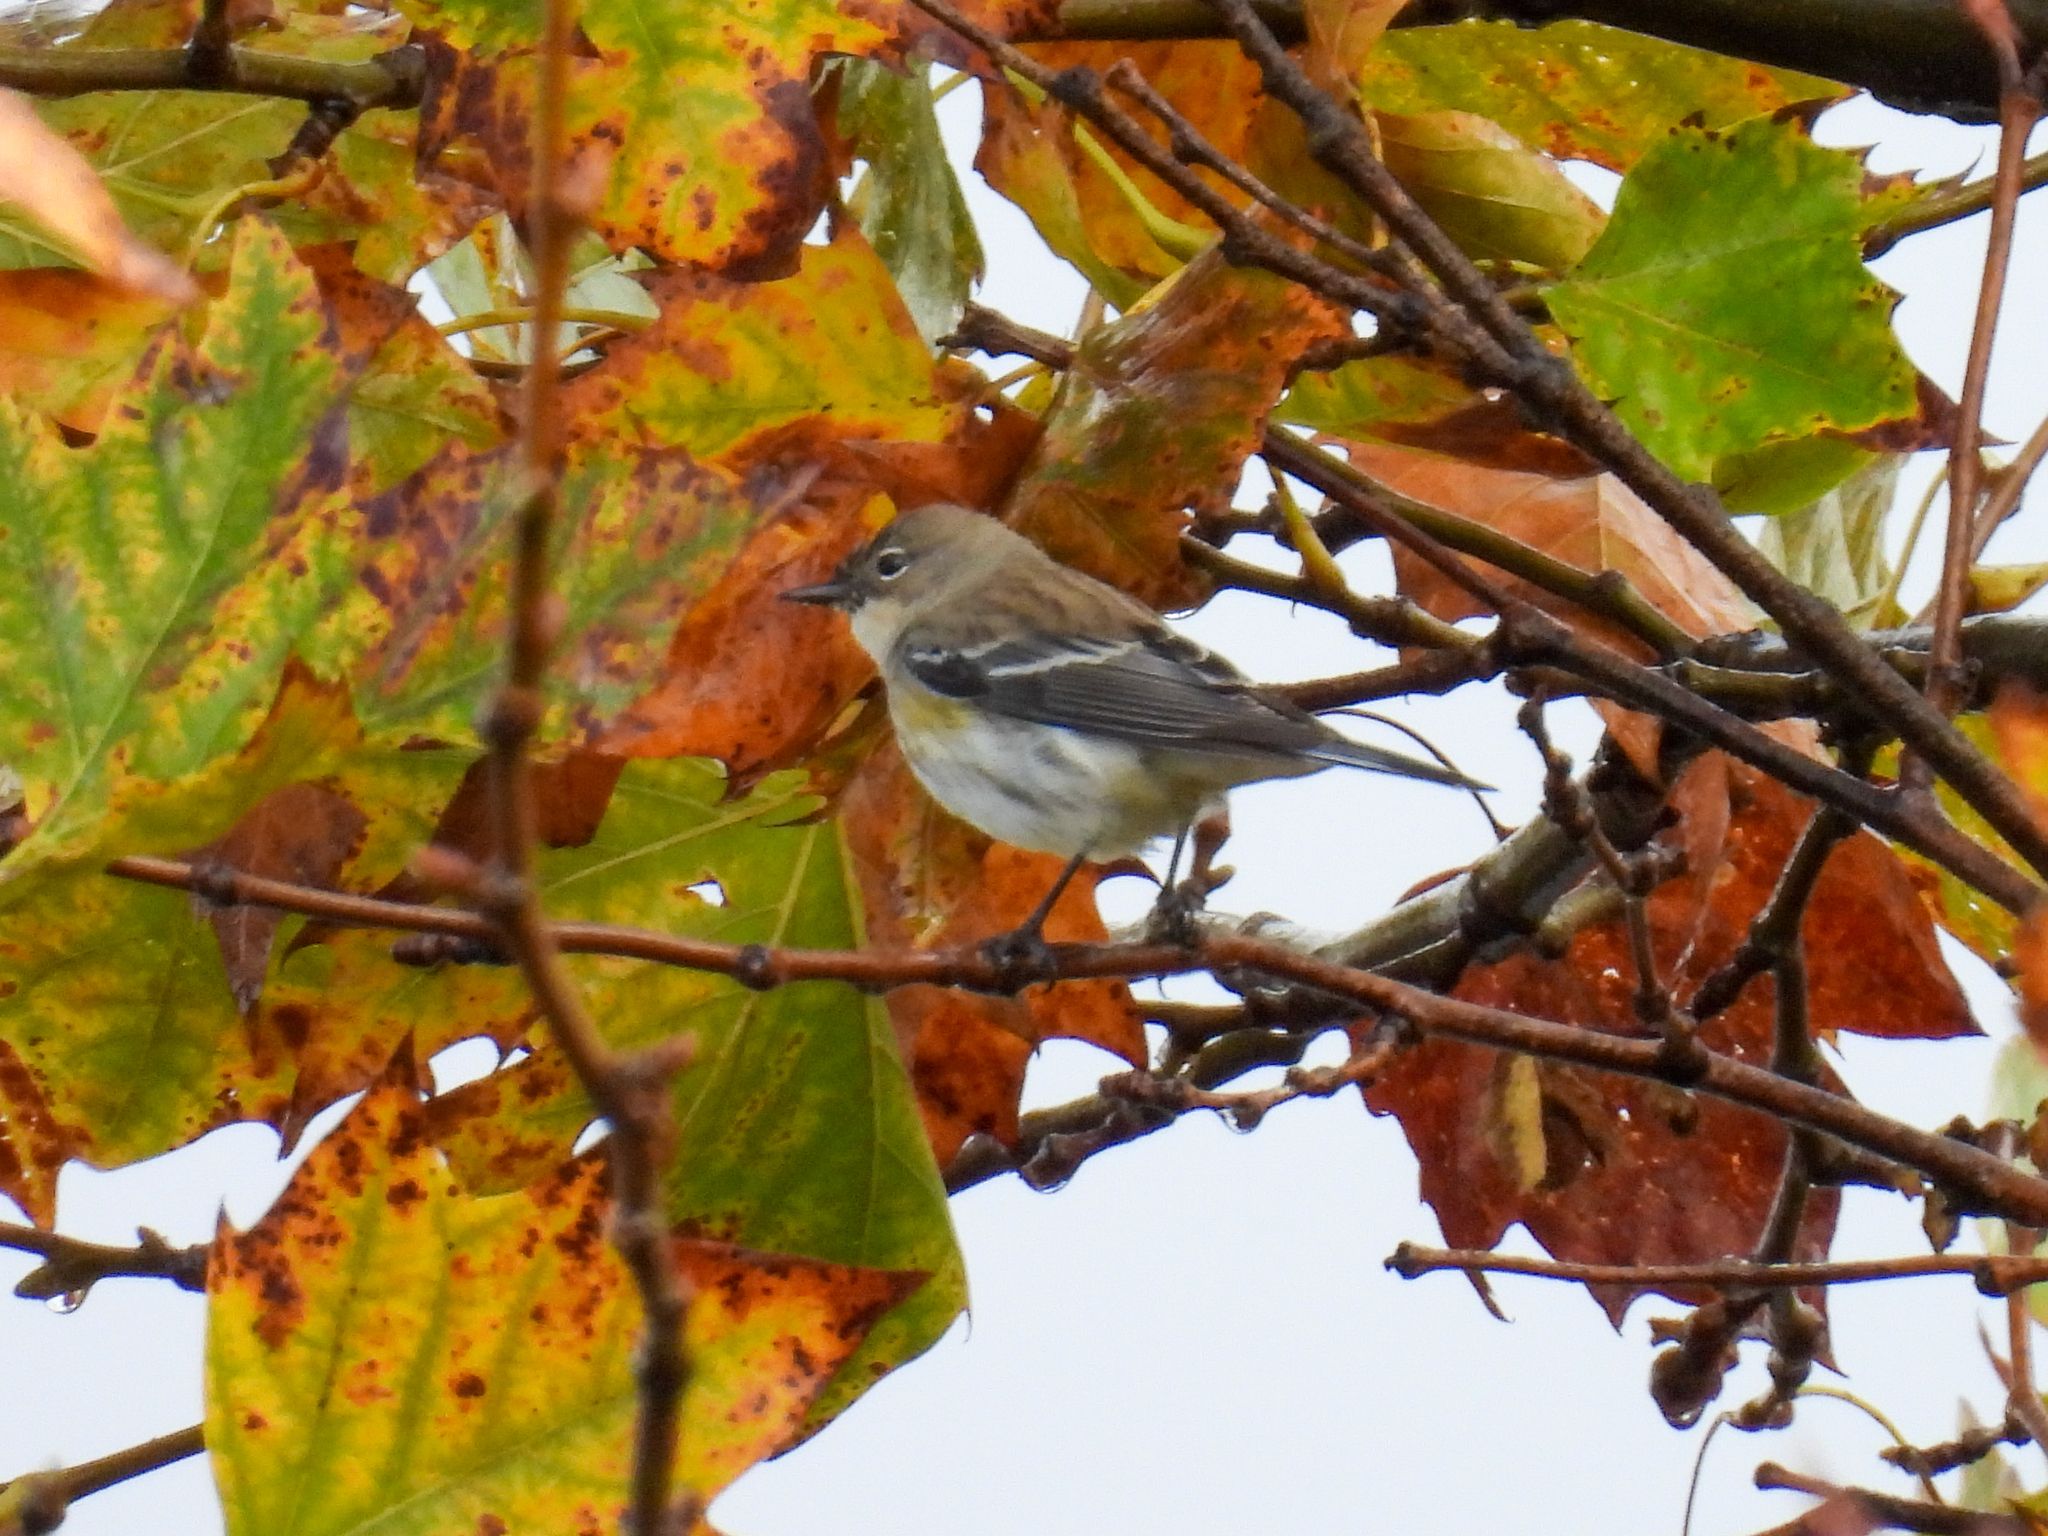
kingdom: Animalia
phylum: Chordata
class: Aves
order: Passeriformes
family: Parulidae
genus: Setophaga
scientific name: Setophaga coronata
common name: Myrtle warbler
